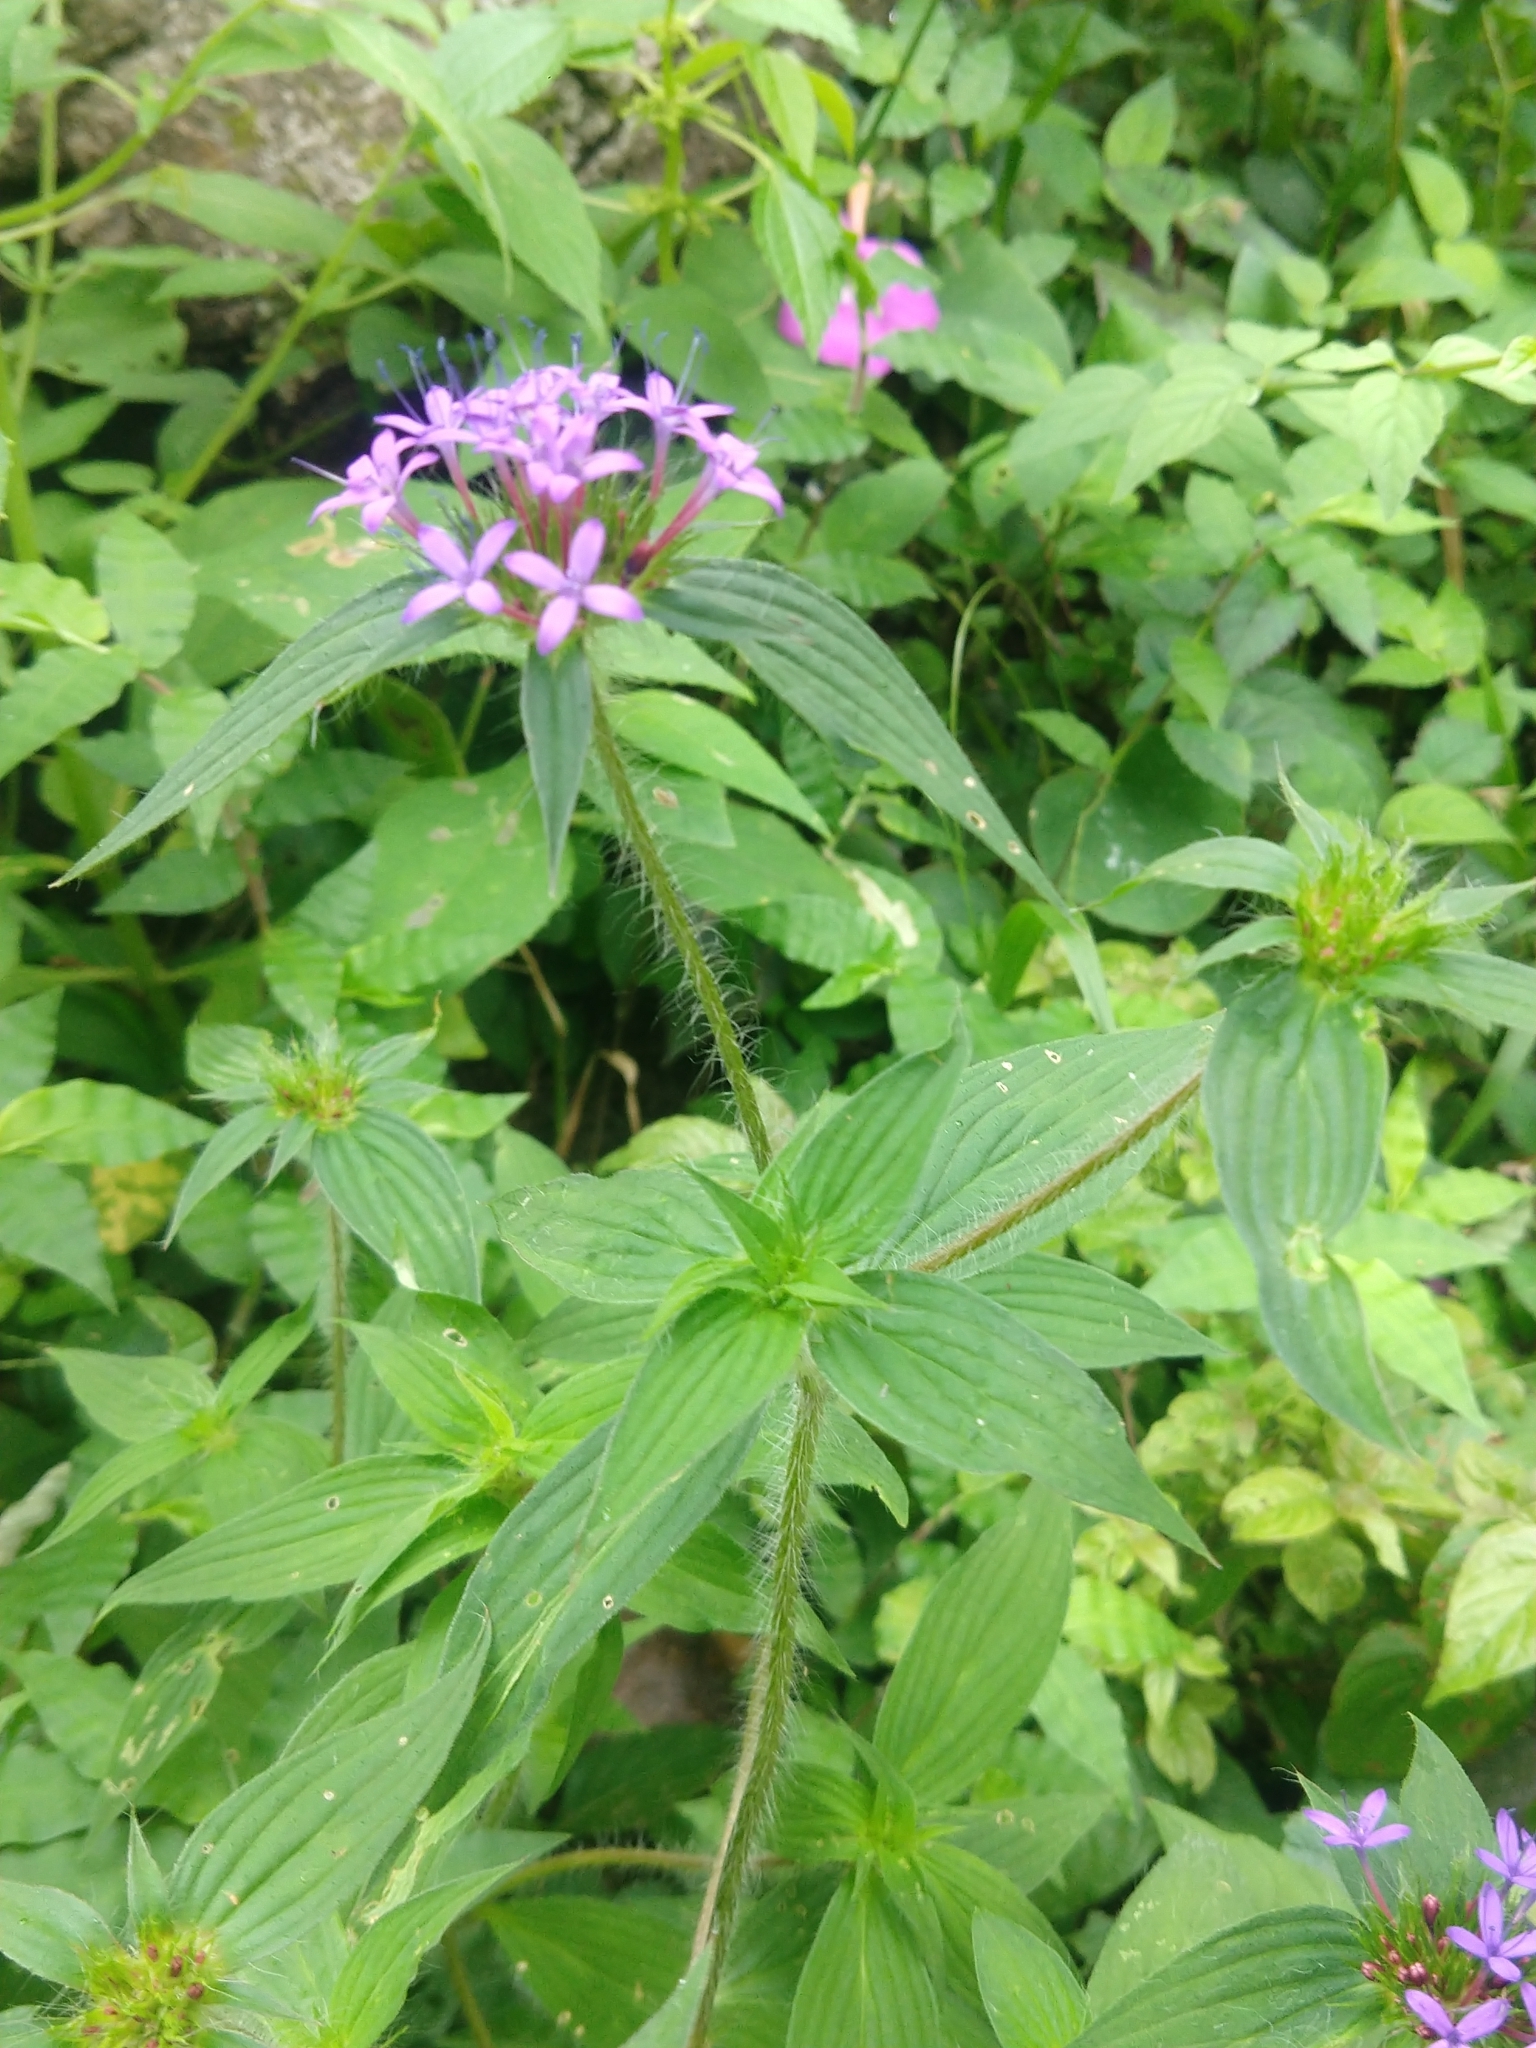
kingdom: Plantae
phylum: Tracheophyta
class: Magnoliopsida
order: Gentianales
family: Rubiaceae
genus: Crusea
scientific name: Crusea hispida
